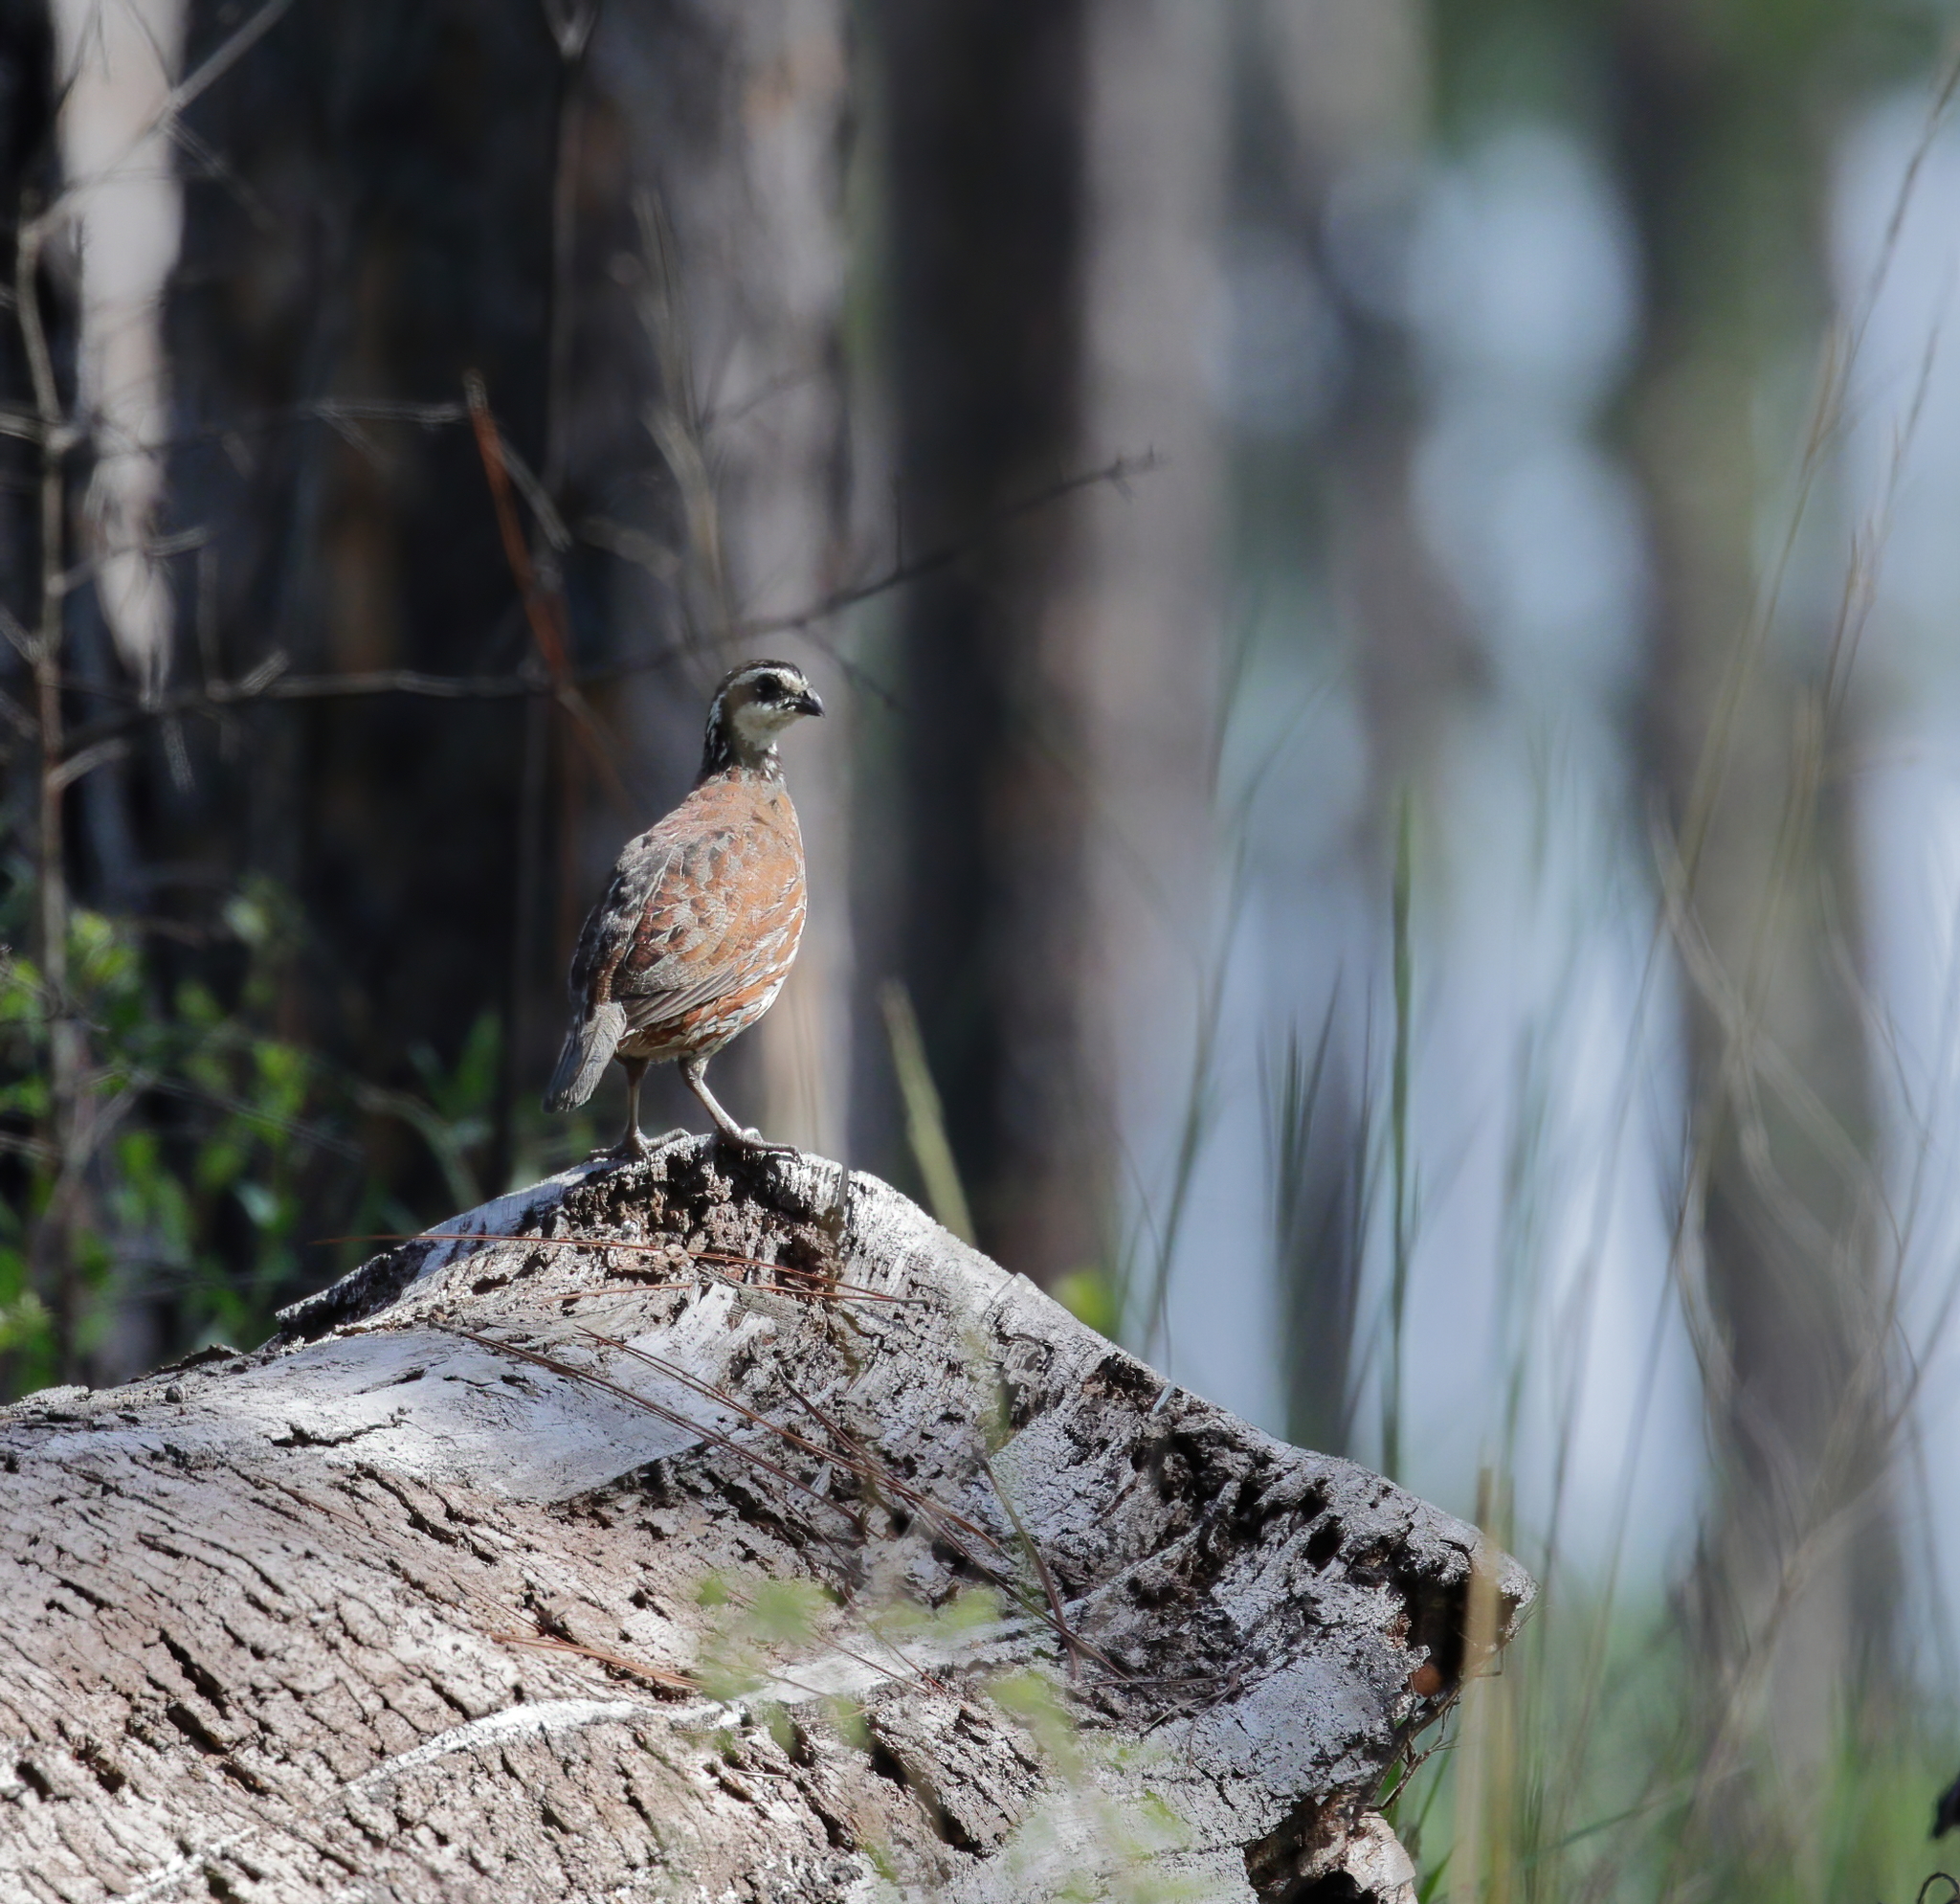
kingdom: Animalia
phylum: Chordata
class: Aves
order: Galliformes
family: Odontophoridae
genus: Colinus
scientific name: Colinus virginianus
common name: Northern bobwhite
